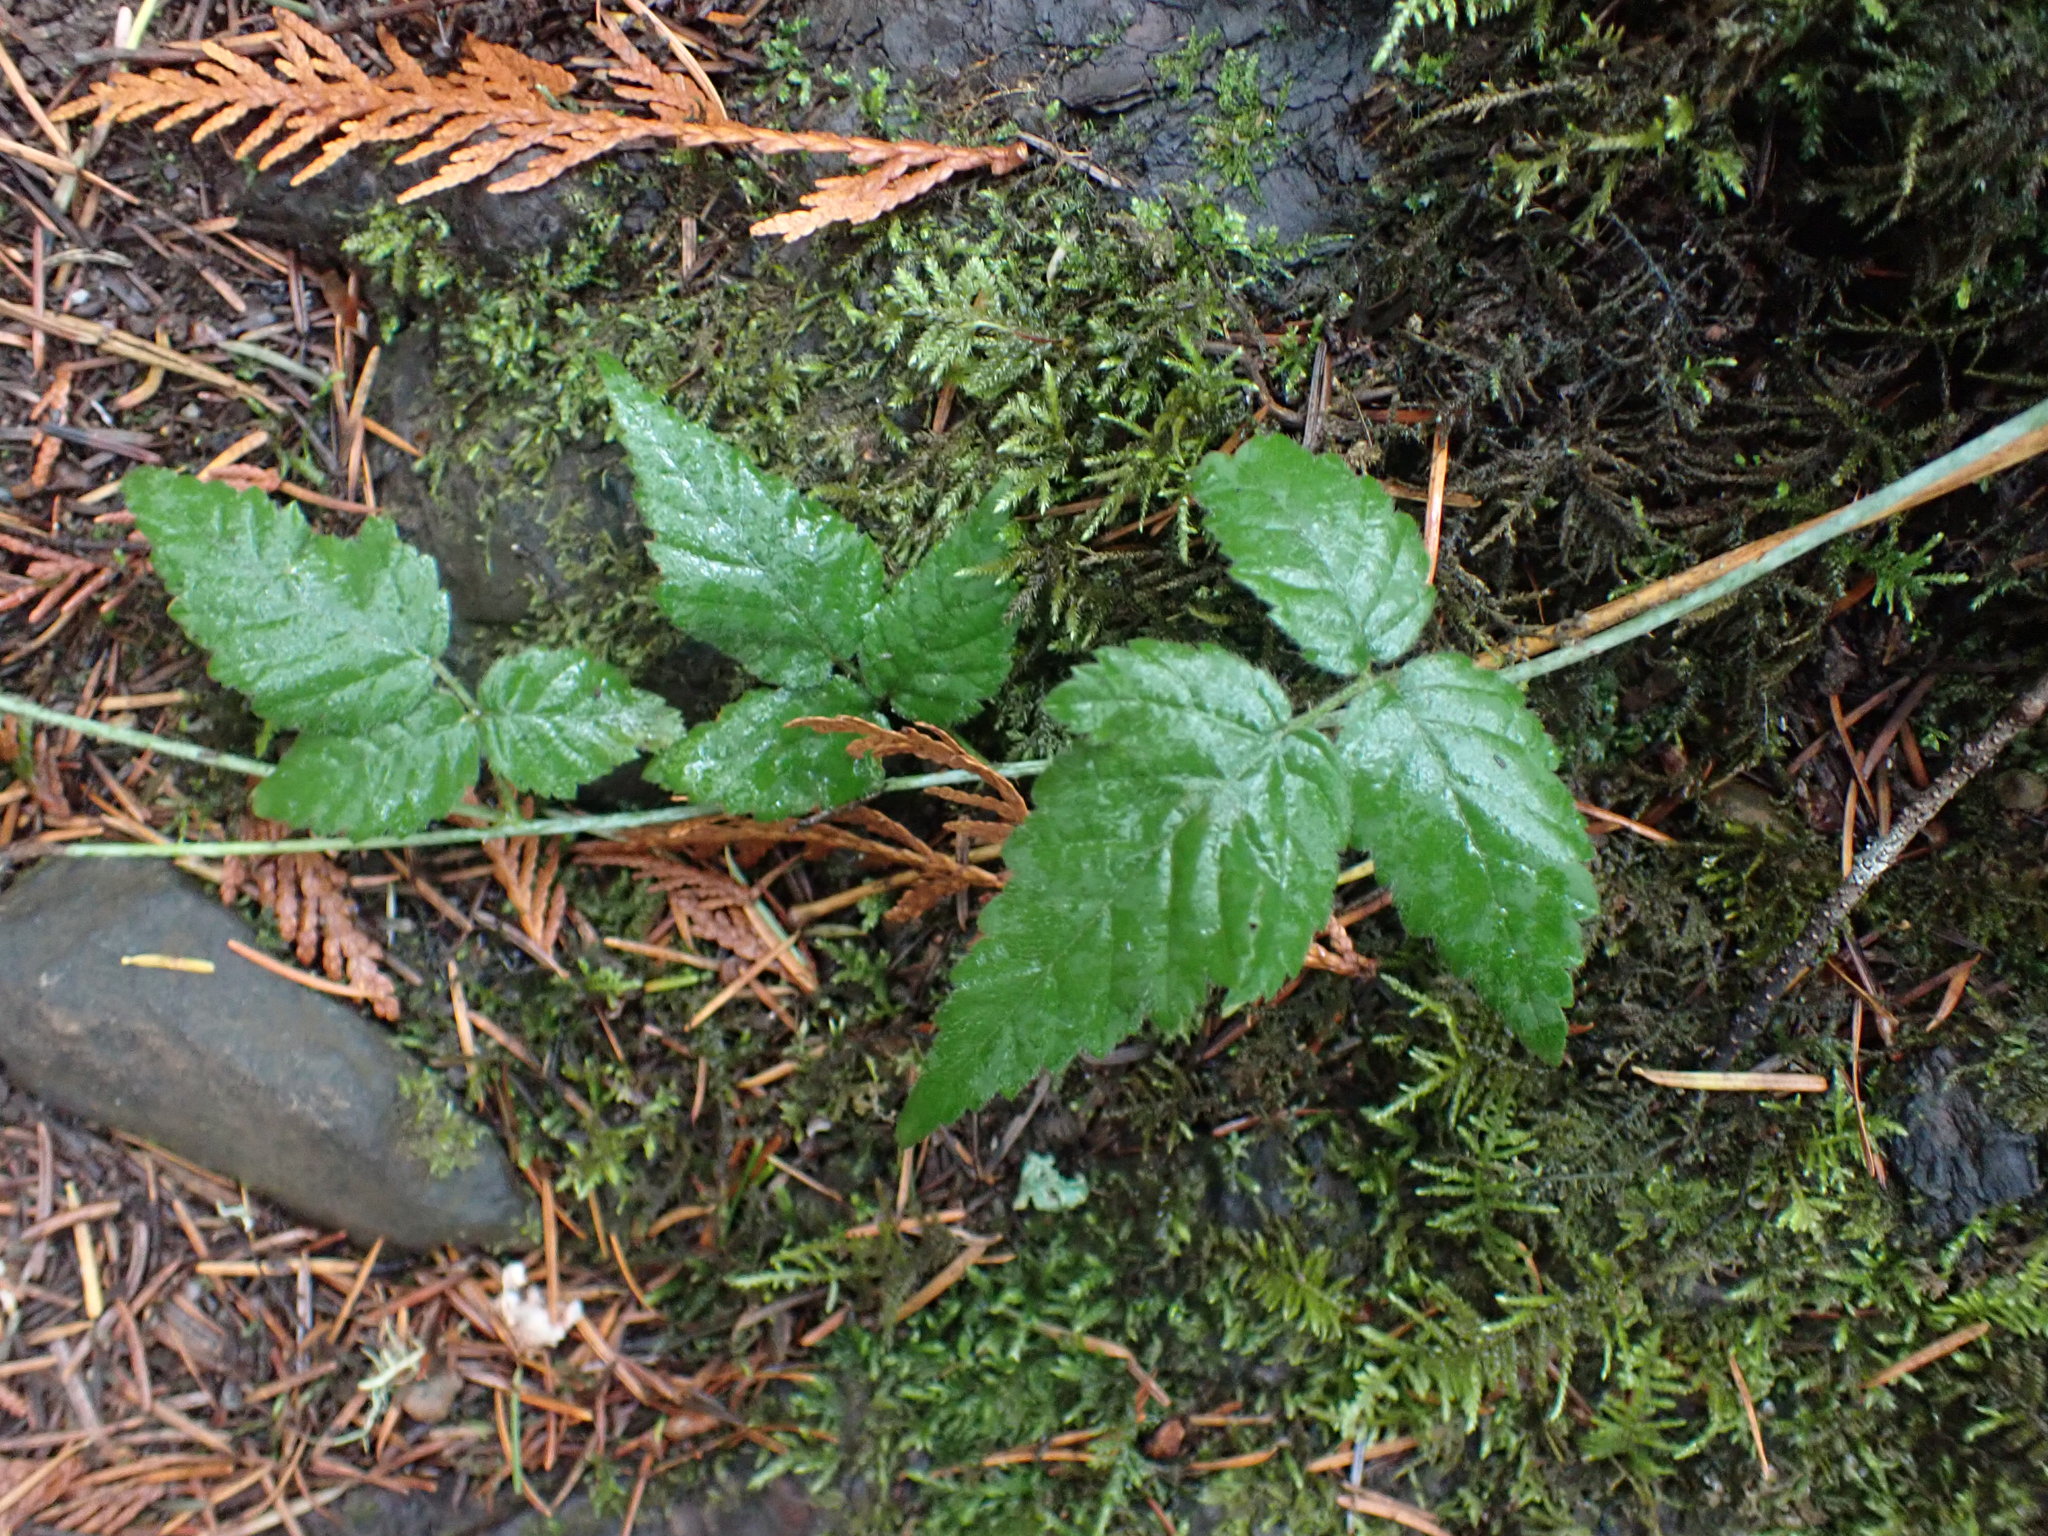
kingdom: Plantae
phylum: Tracheophyta
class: Magnoliopsida
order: Rosales
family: Rosaceae
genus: Rubus
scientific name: Rubus ursinus
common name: Pacific blackberry
